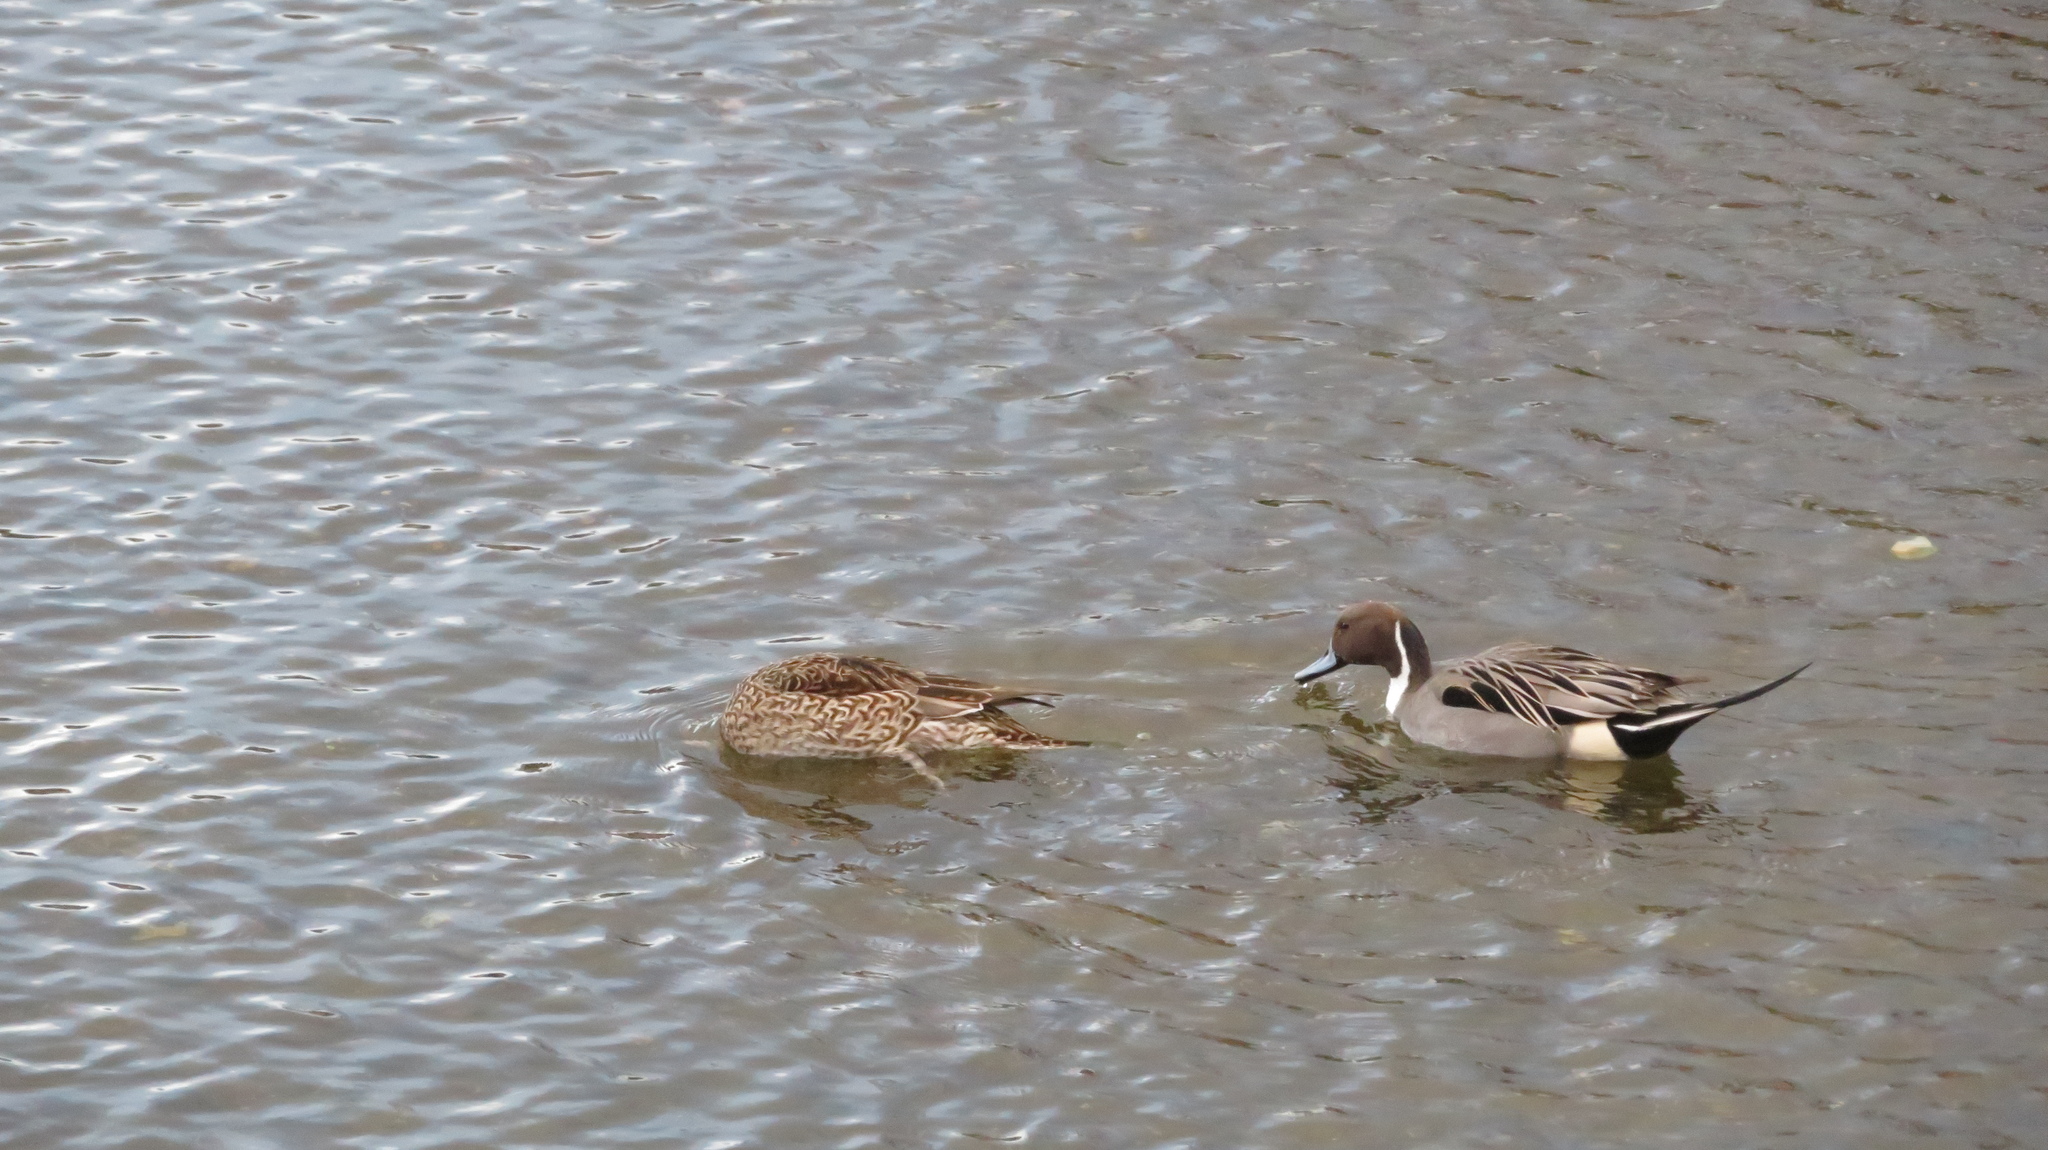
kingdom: Animalia
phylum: Chordata
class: Aves
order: Anseriformes
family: Anatidae
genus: Anas
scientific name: Anas acuta
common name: Northern pintail
